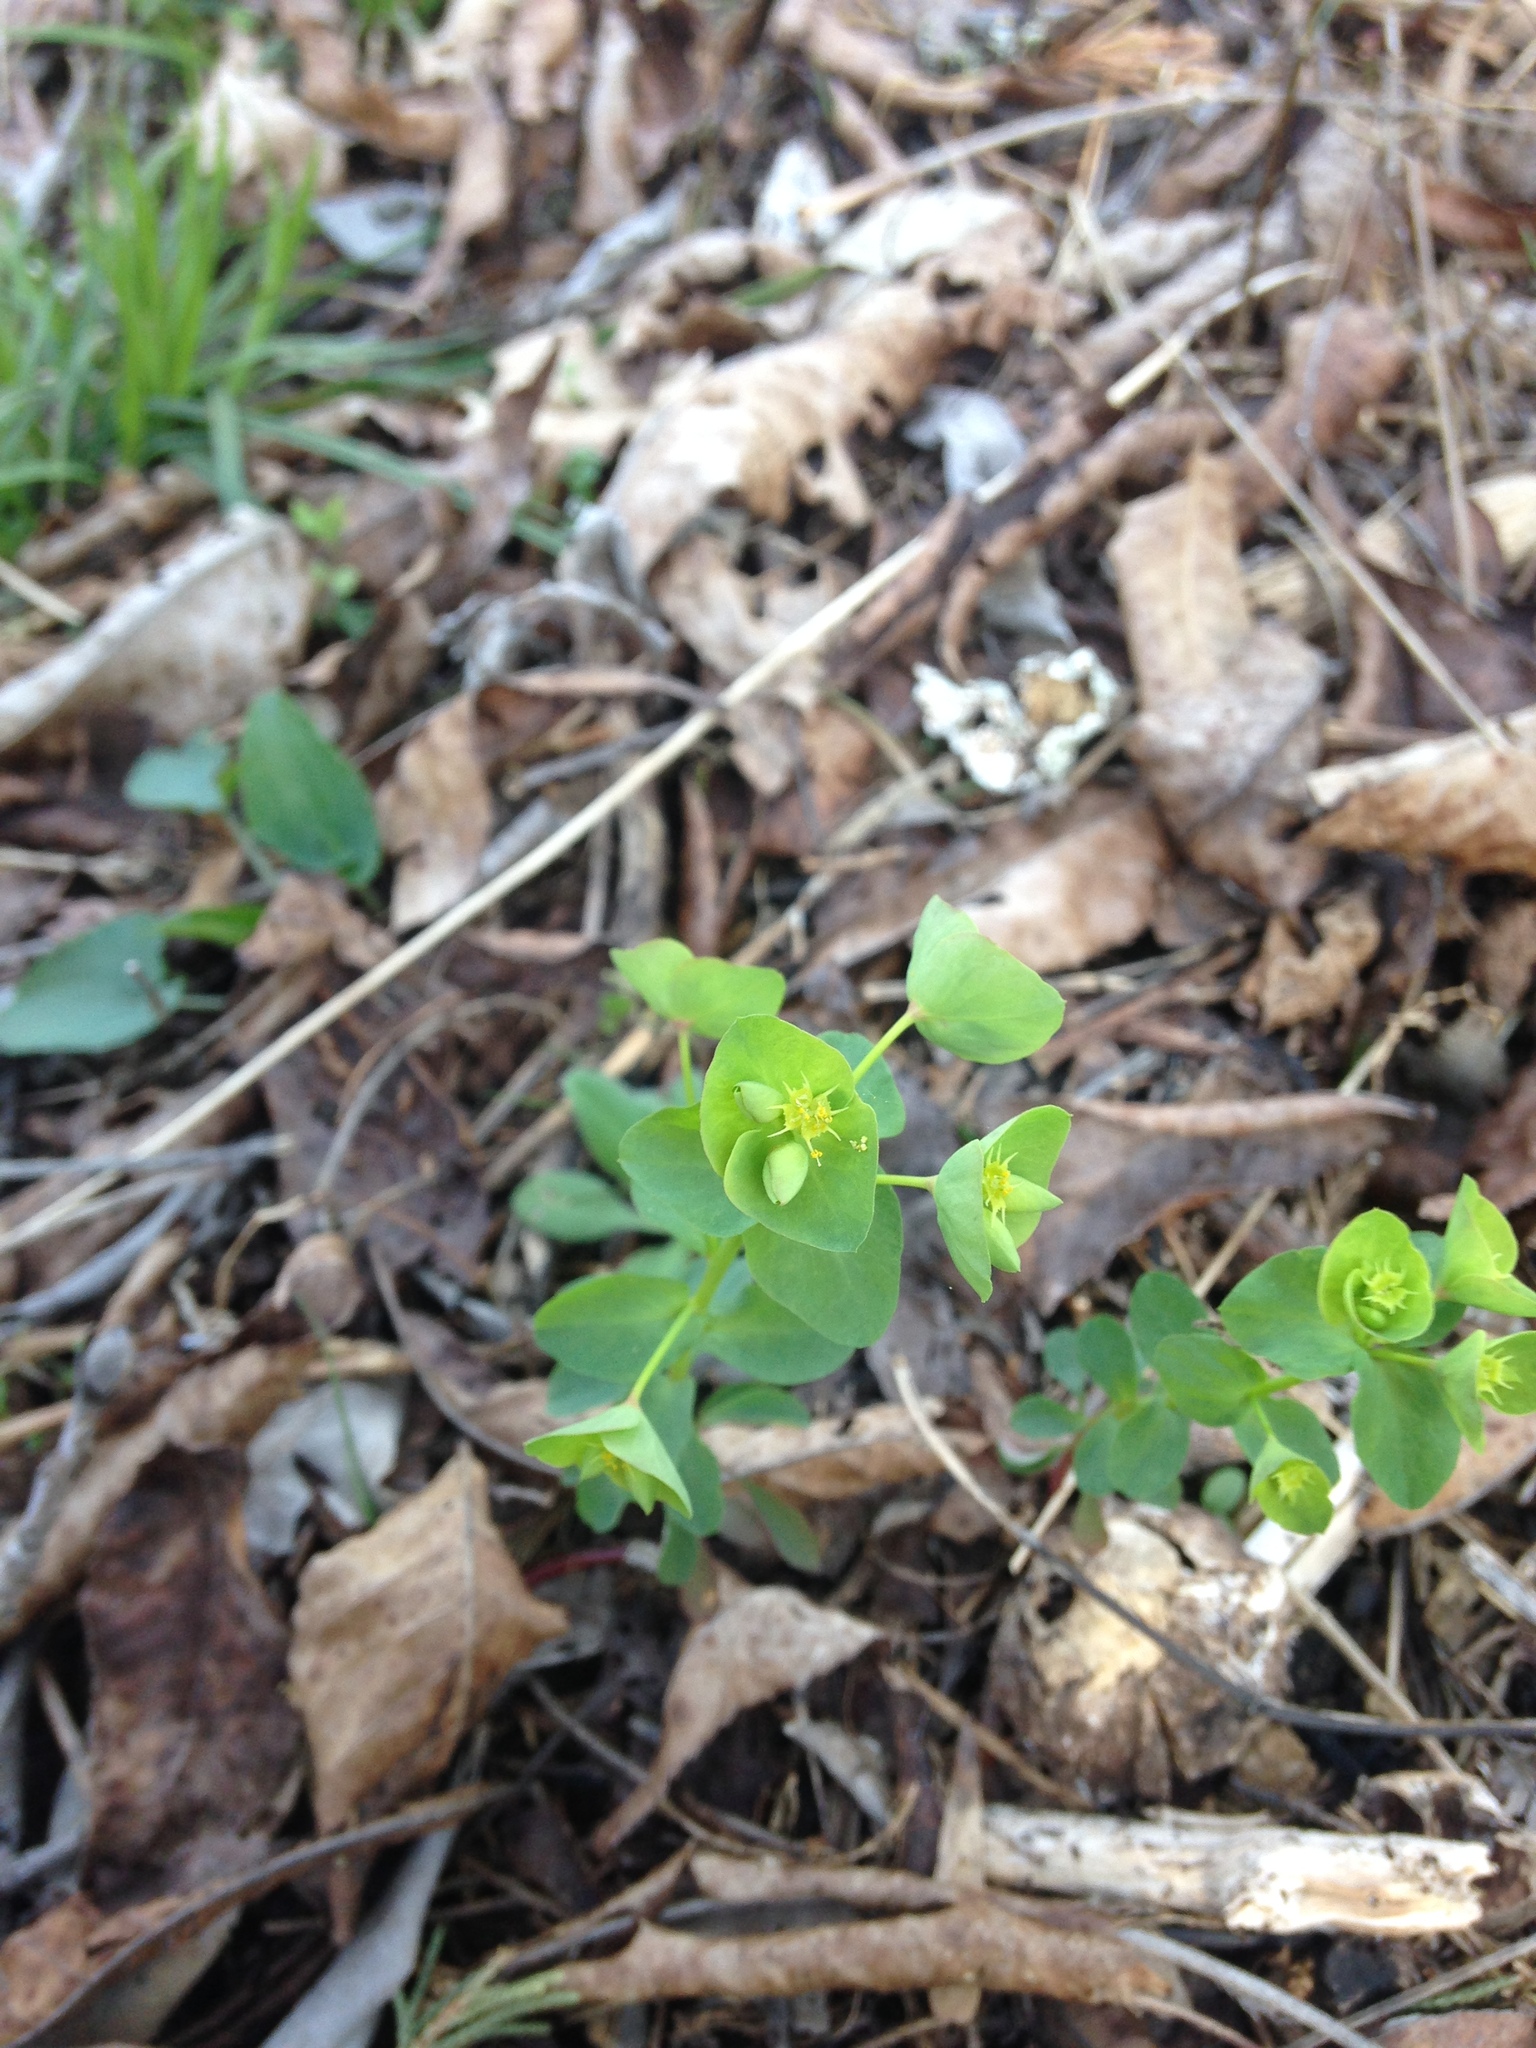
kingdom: Plantae
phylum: Tracheophyta
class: Magnoliopsida
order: Malpighiales
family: Euphorbiaceae
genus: Euphorbia
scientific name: Euphorbia ouachitana
